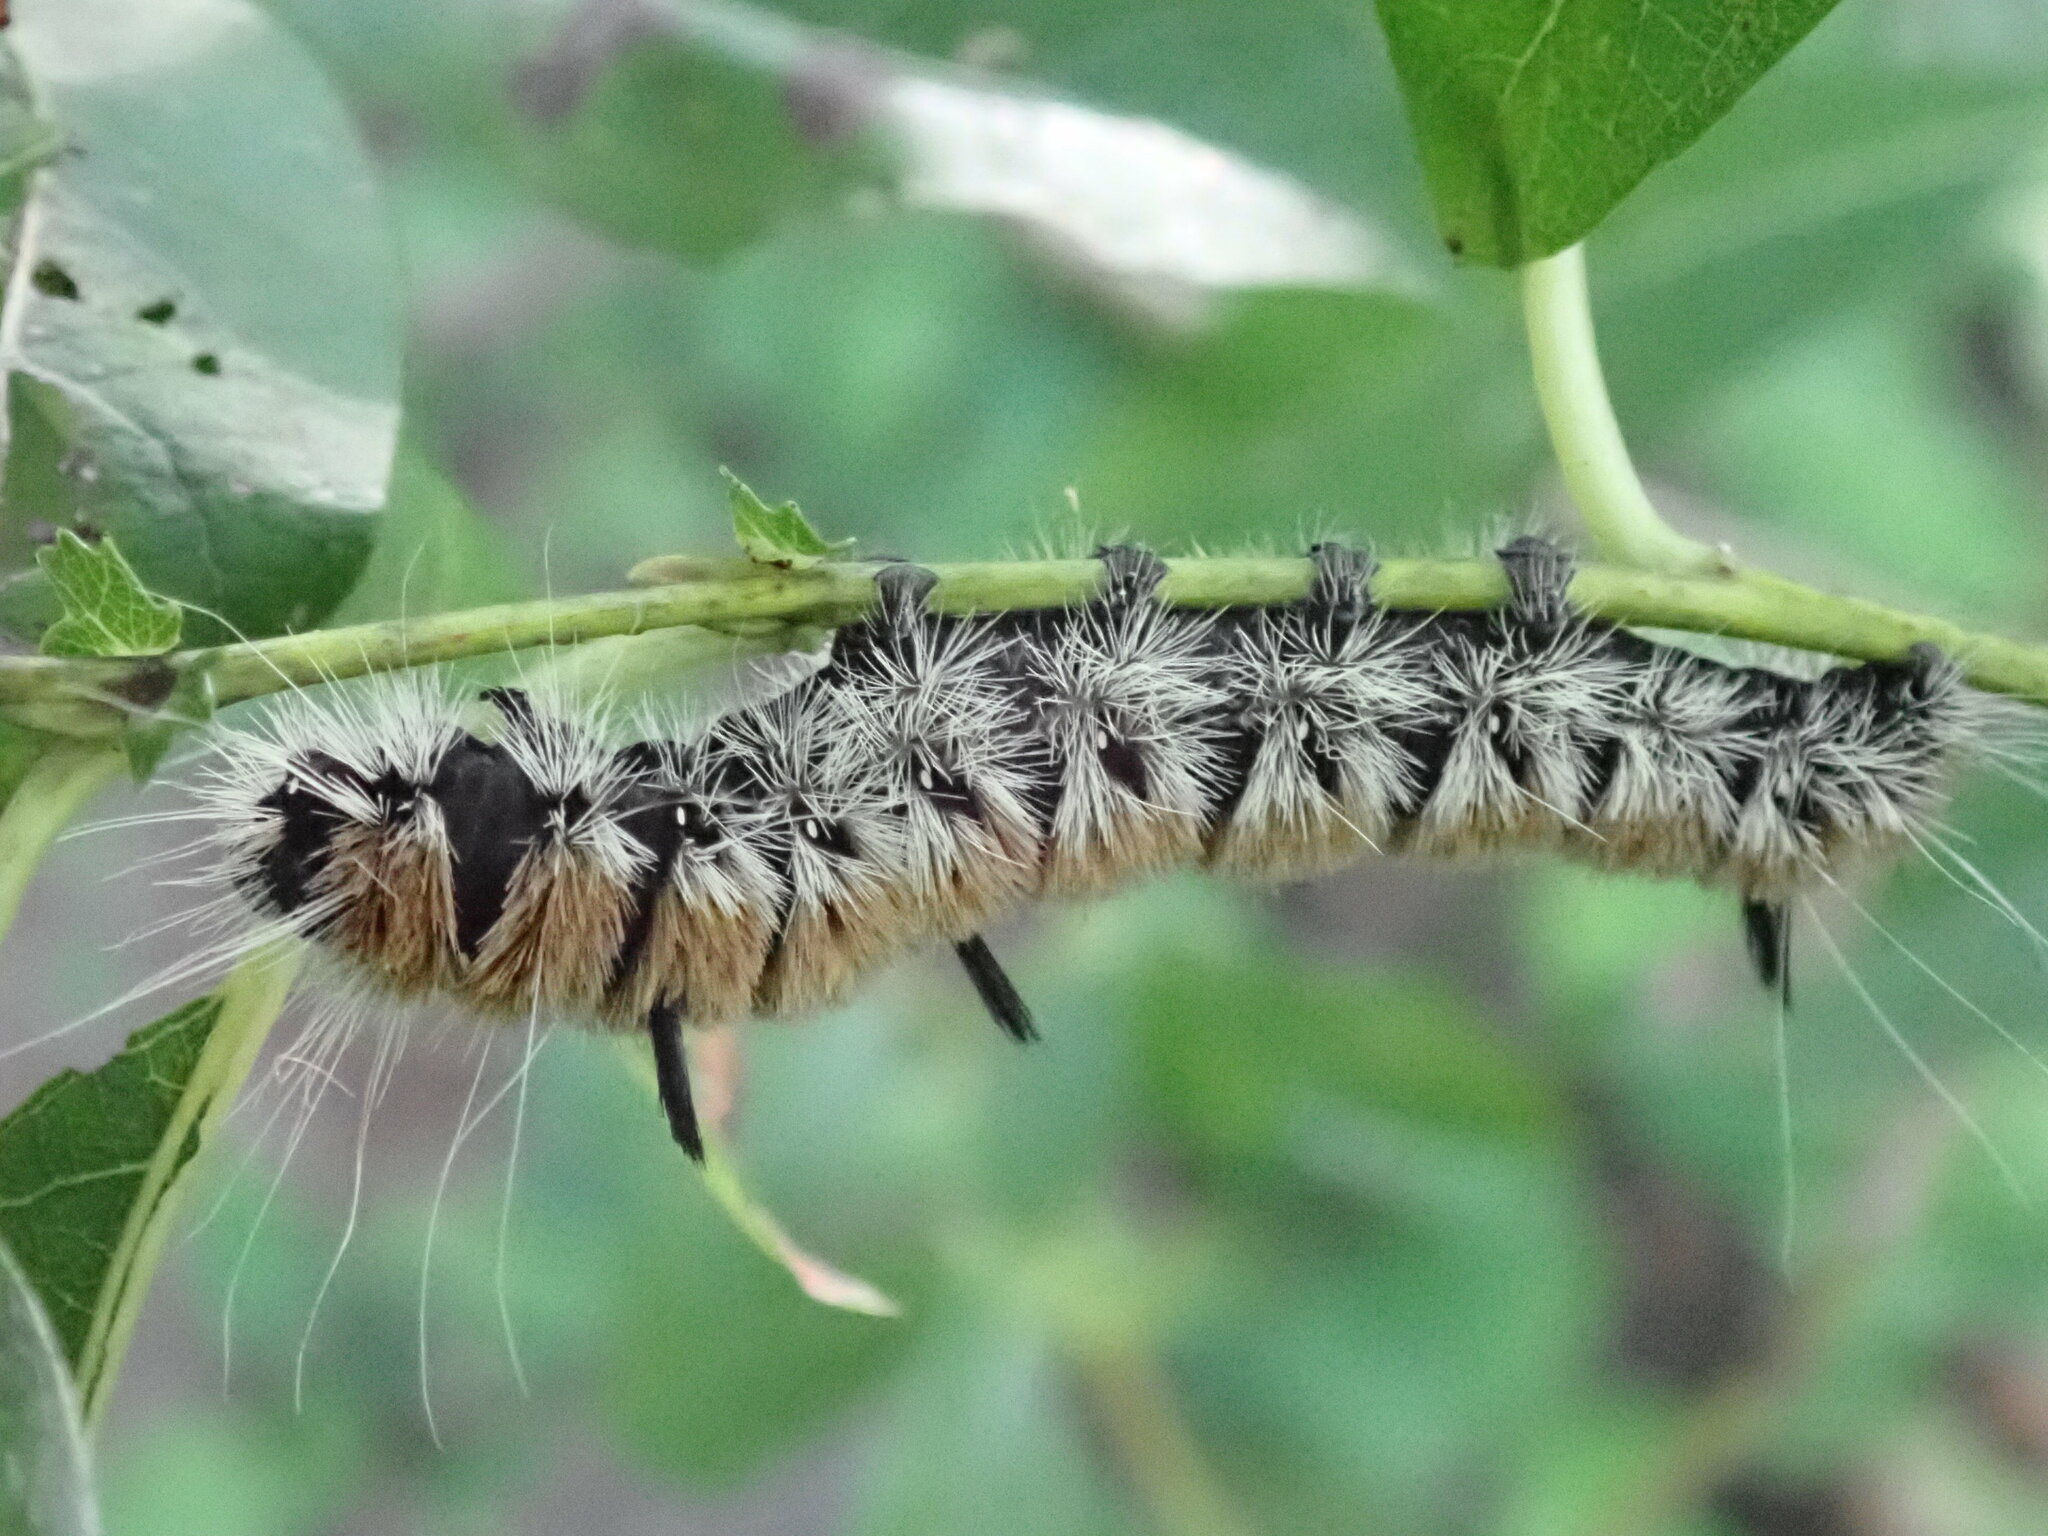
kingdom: Animalia
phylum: Arthropoda
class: Insecta
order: Lepidoptera
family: Noctuidae
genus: Acronicta
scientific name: Acronicta insita
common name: Large gray dagger
